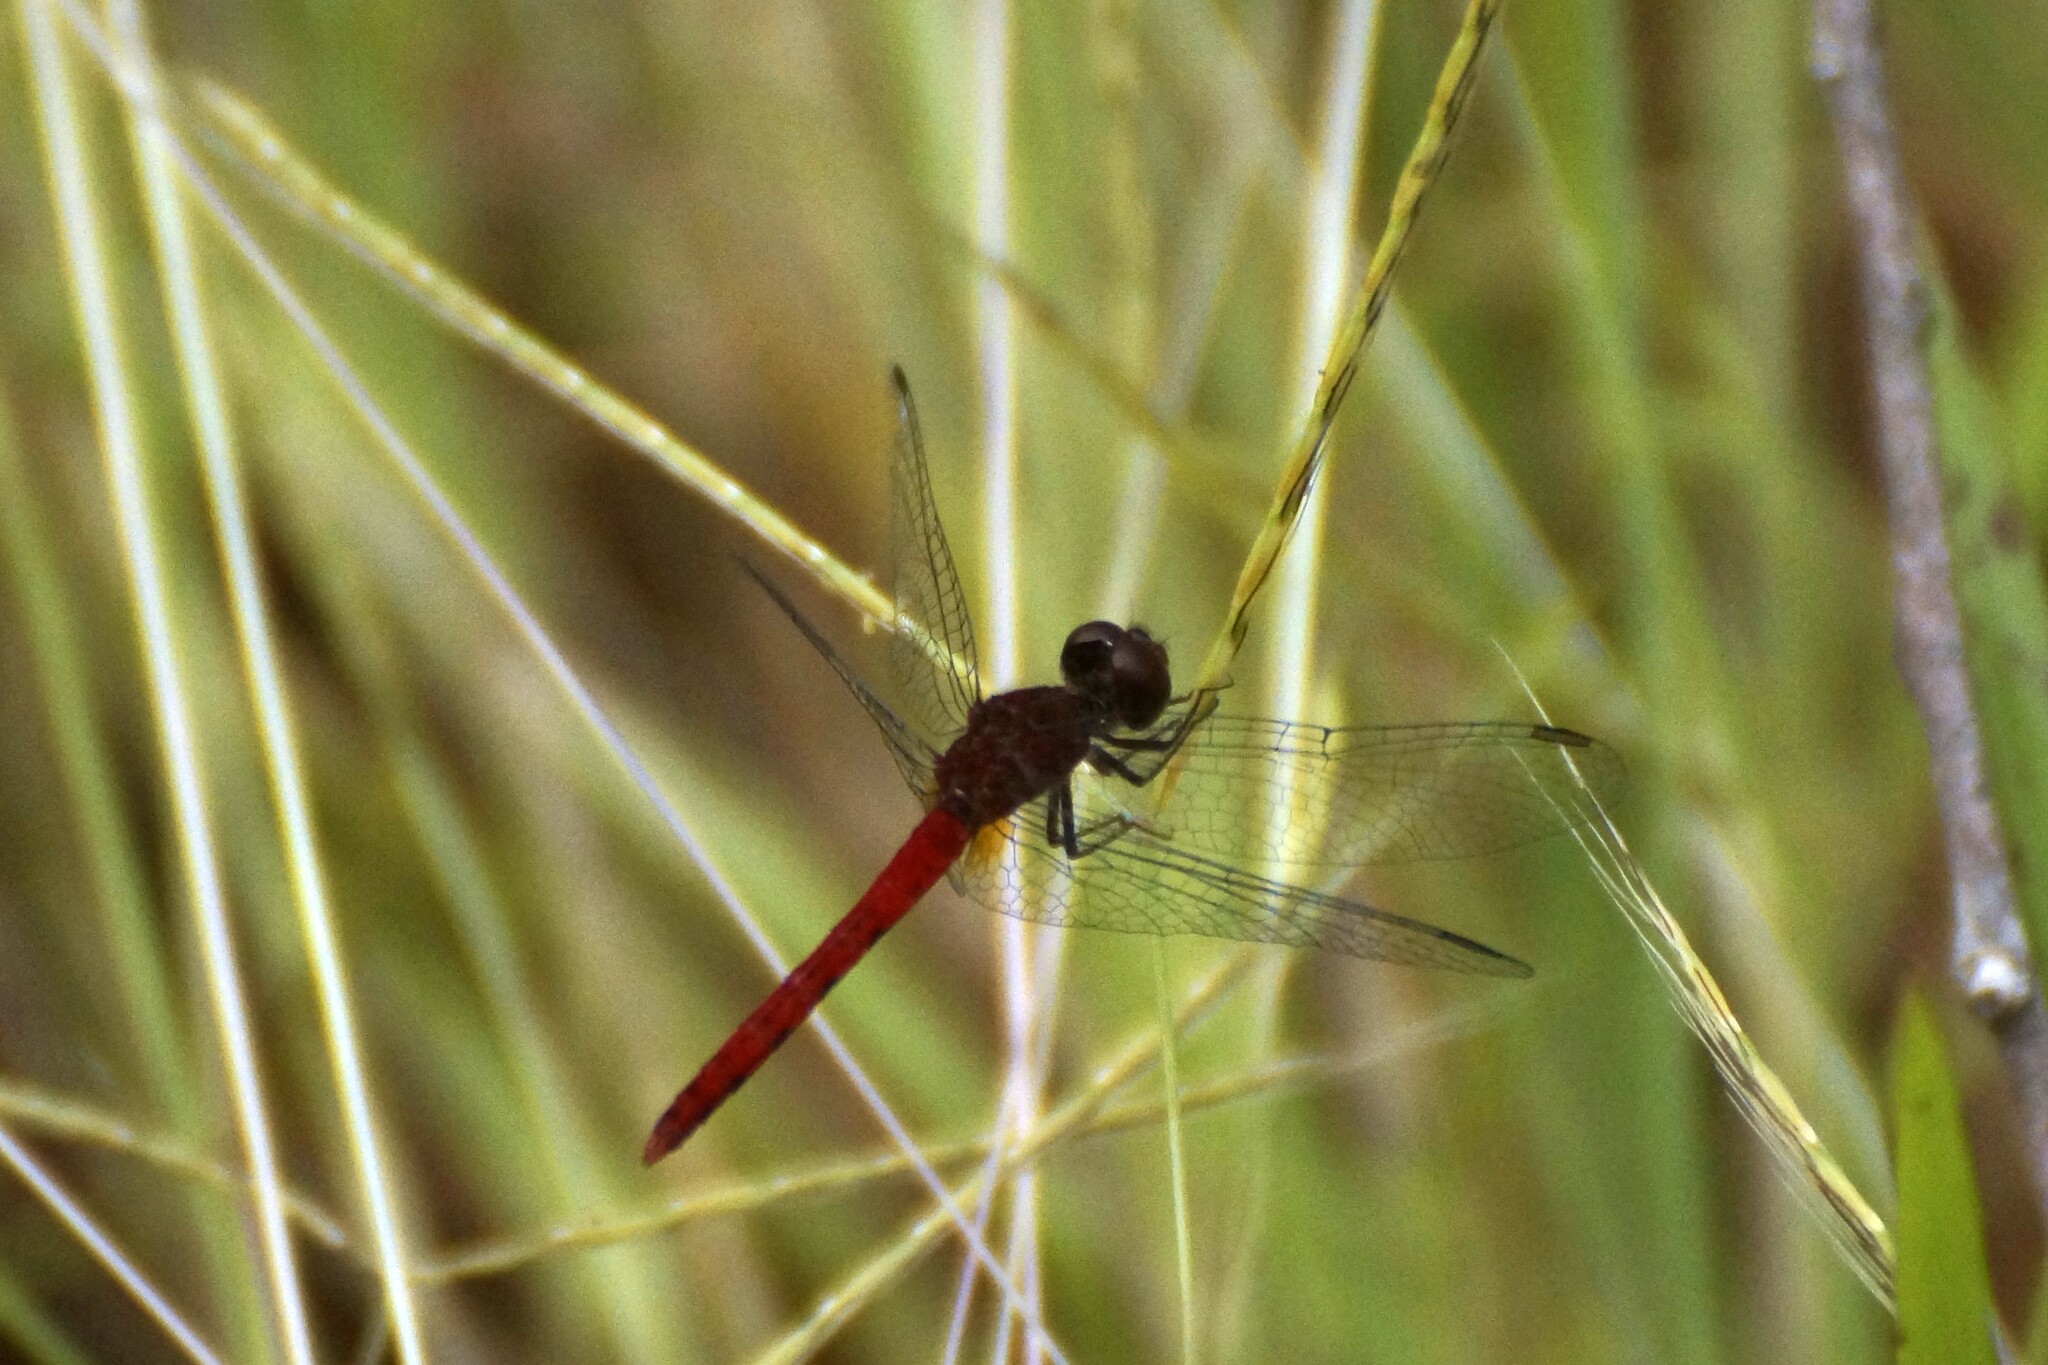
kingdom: Animalia
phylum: Arthropoda
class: Insecta
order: Odonata
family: Libellulidae
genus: Nannodiplax
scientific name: Nannodiplax rubra
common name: Pygmy percher
